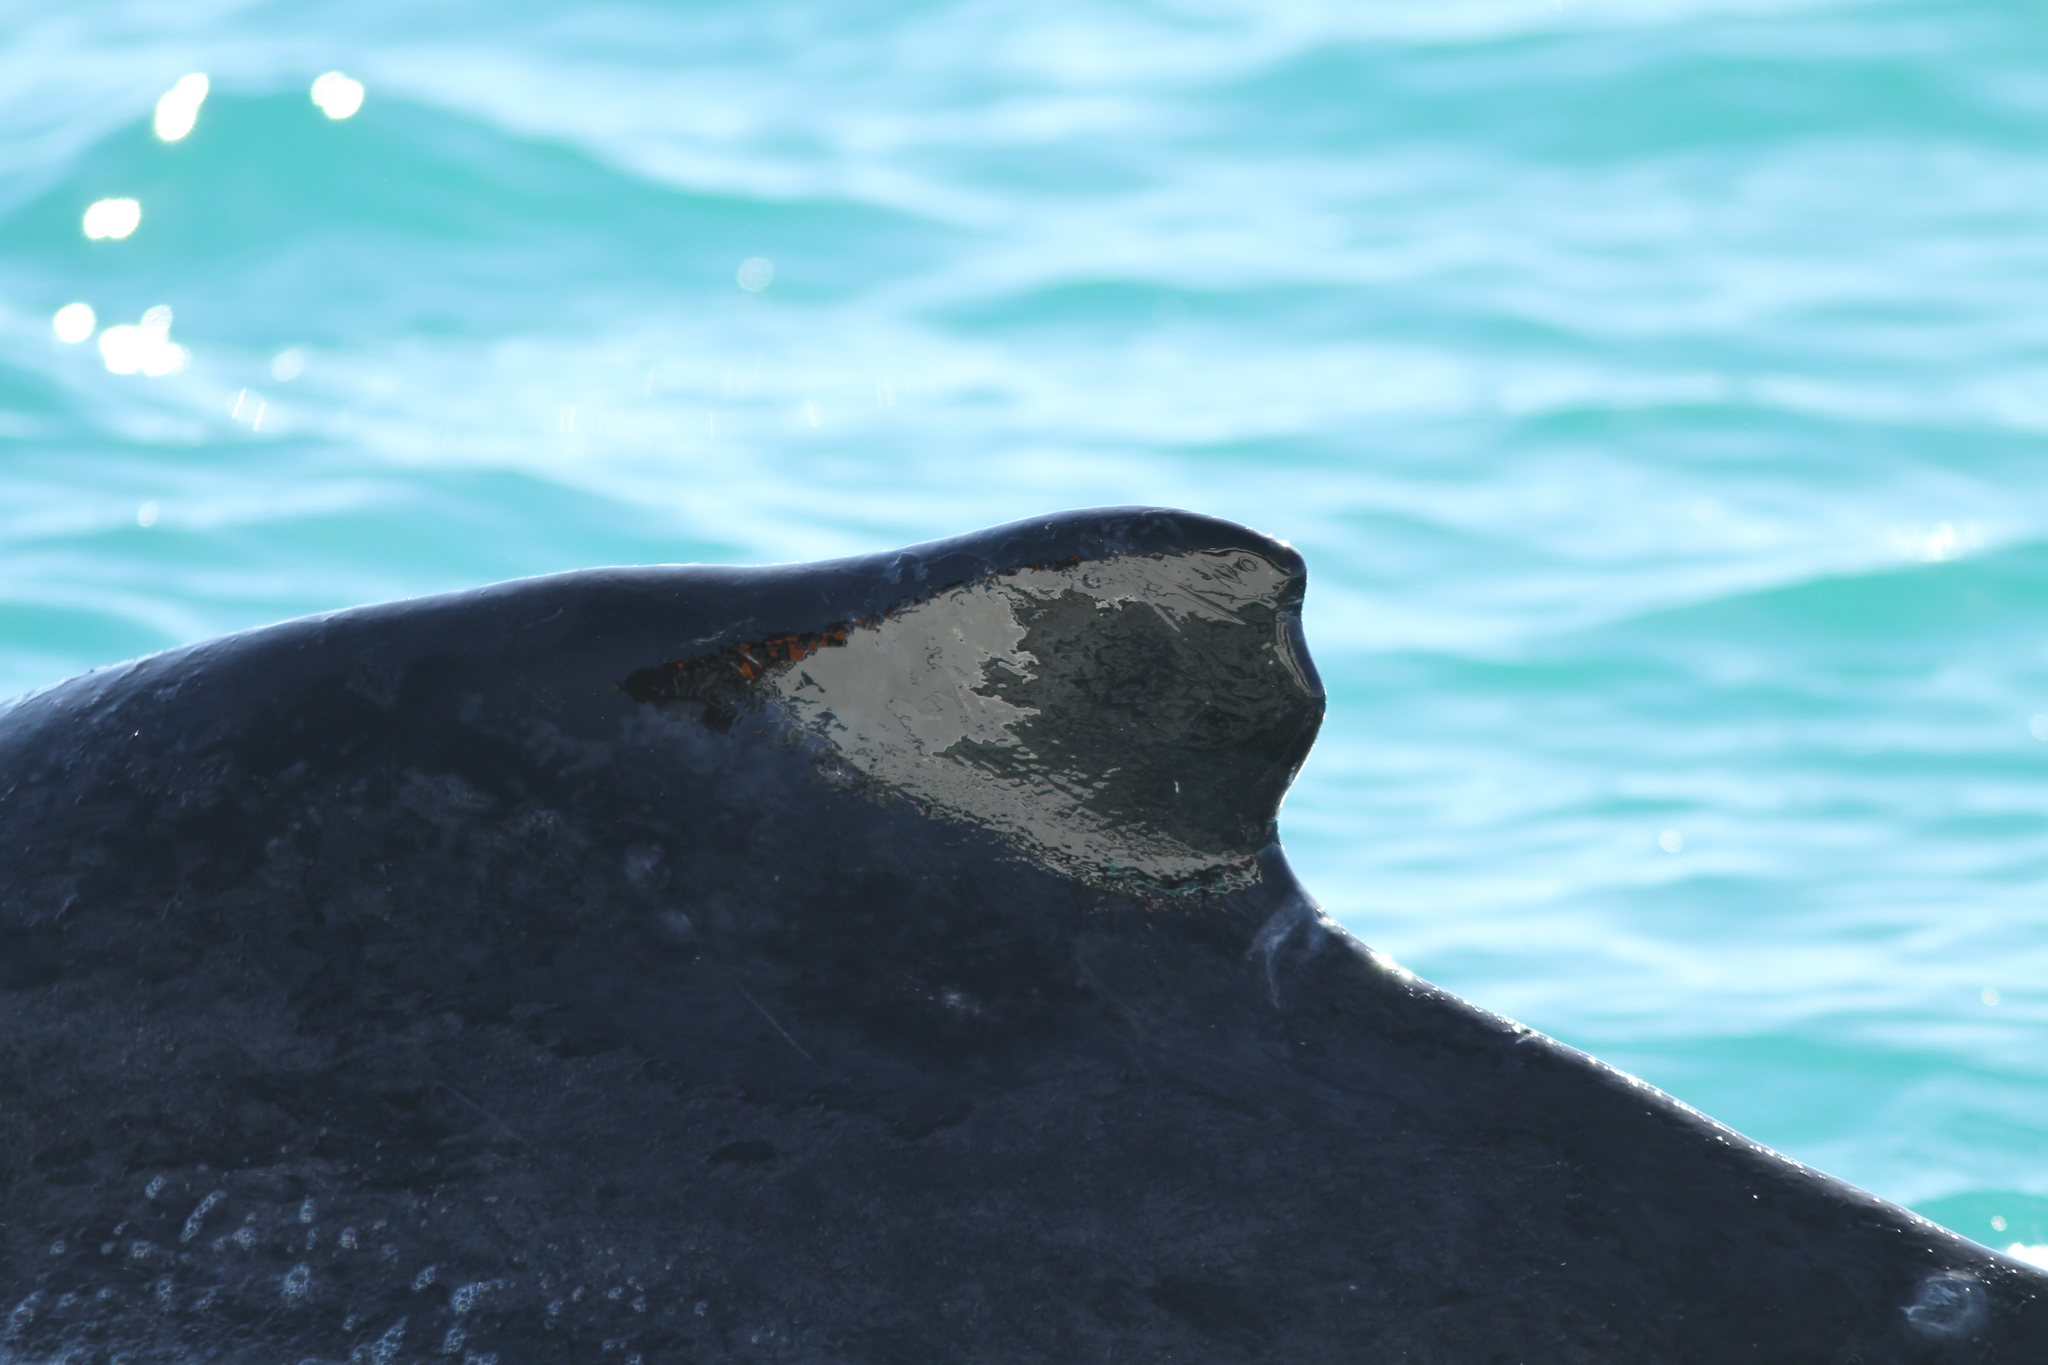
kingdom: Animalia
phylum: Chordata
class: Mammalia
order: Cetacea
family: Balaenopteridae
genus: Megaptera
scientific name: Megaptera novaeangliae
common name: Humpback whale
